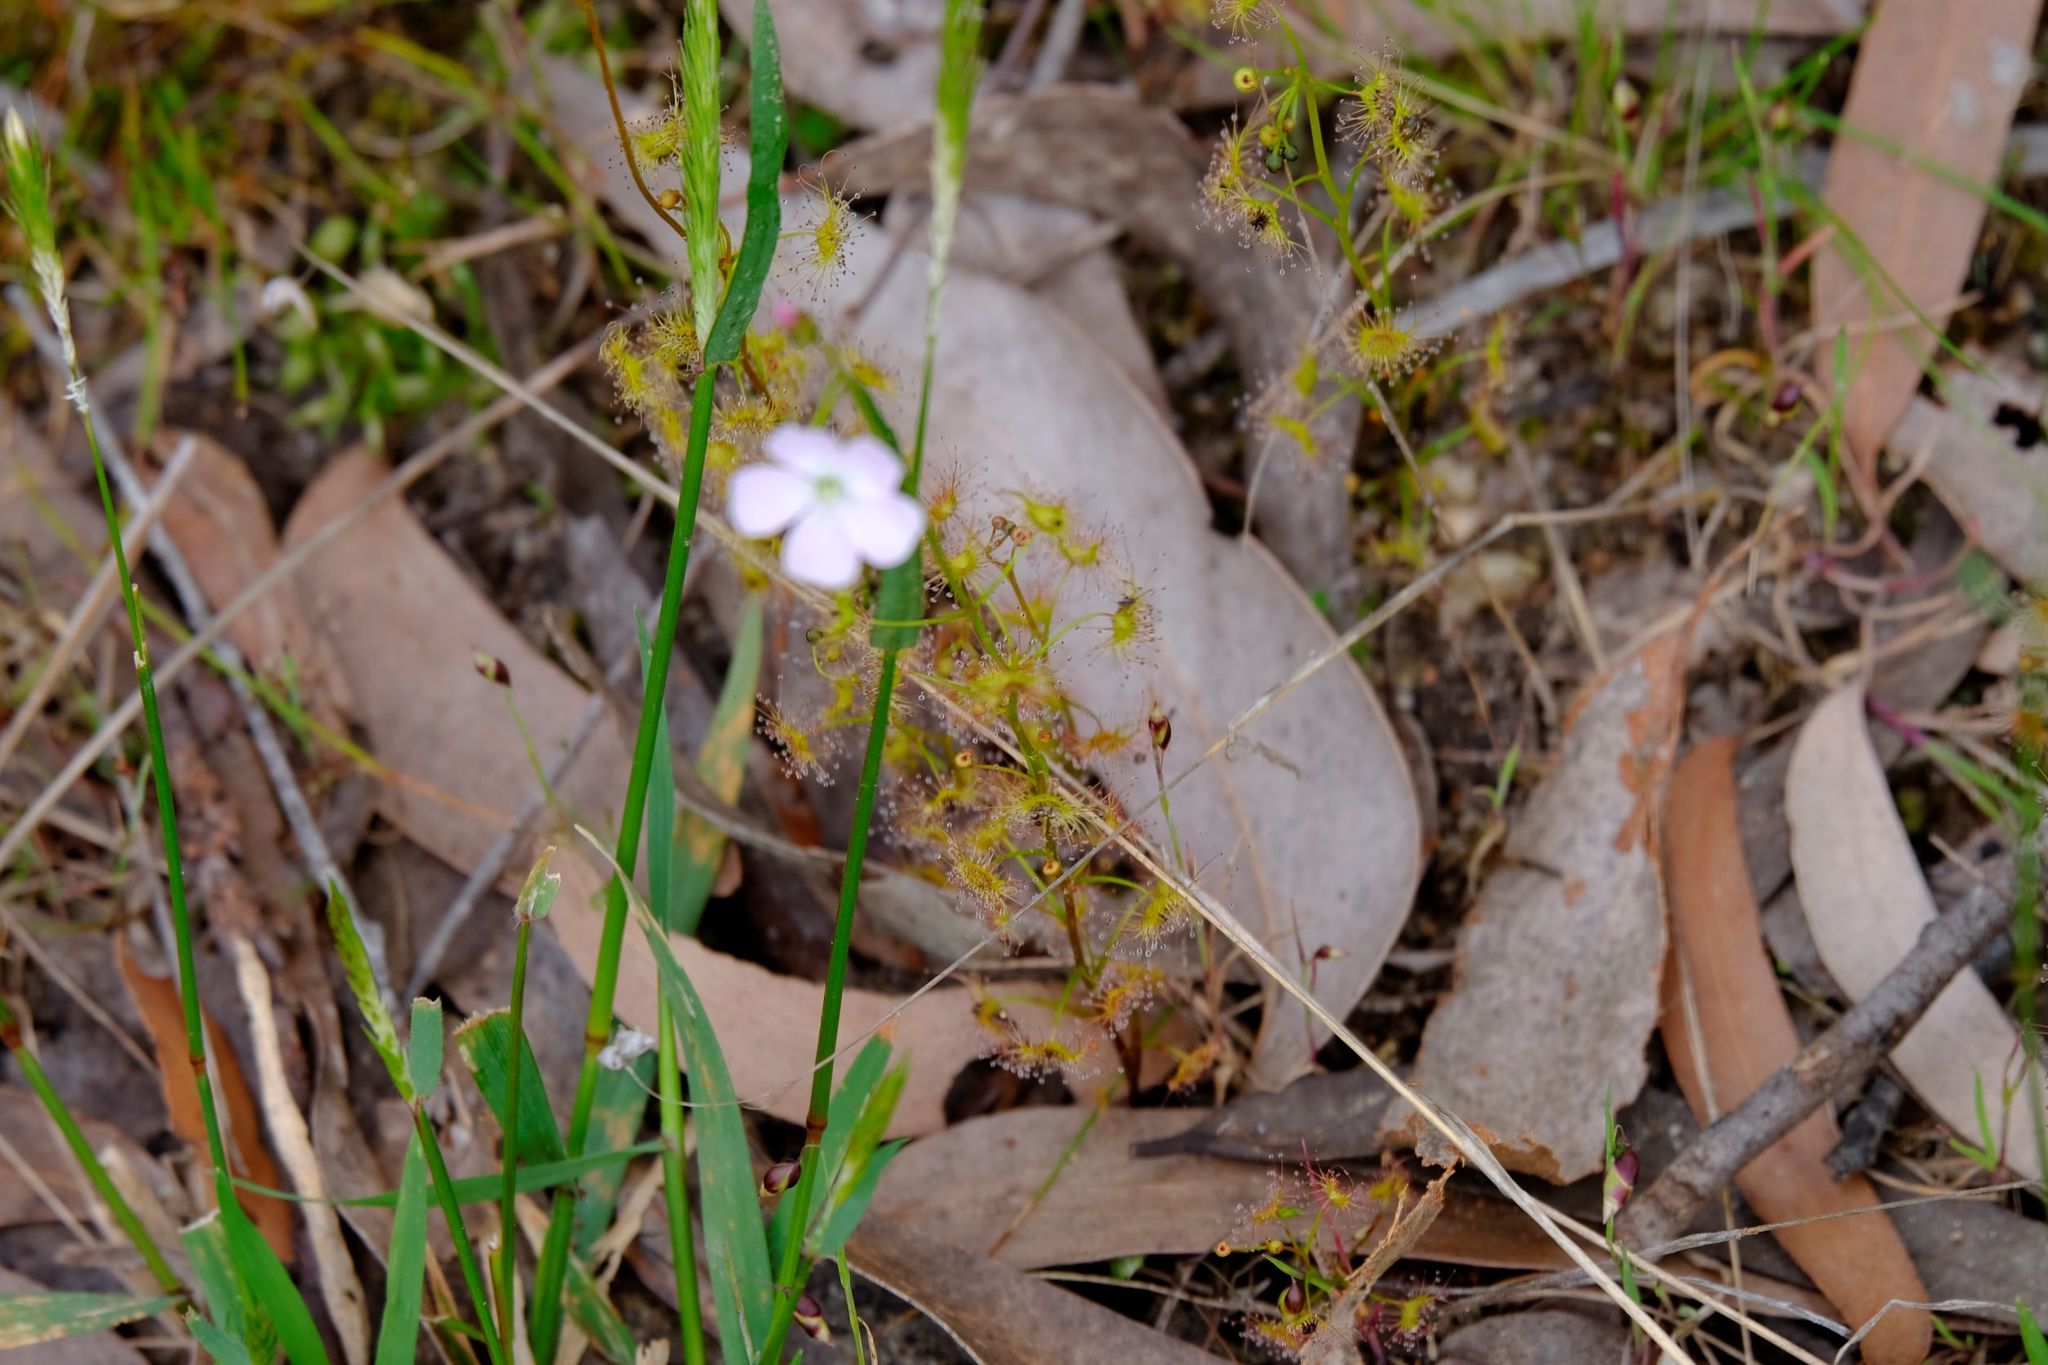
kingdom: Plantae
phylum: Tracheophyta
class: Magnoliopsida
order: Caryophyllales
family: Droseraceae
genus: Drosera
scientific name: Drosera peltata
